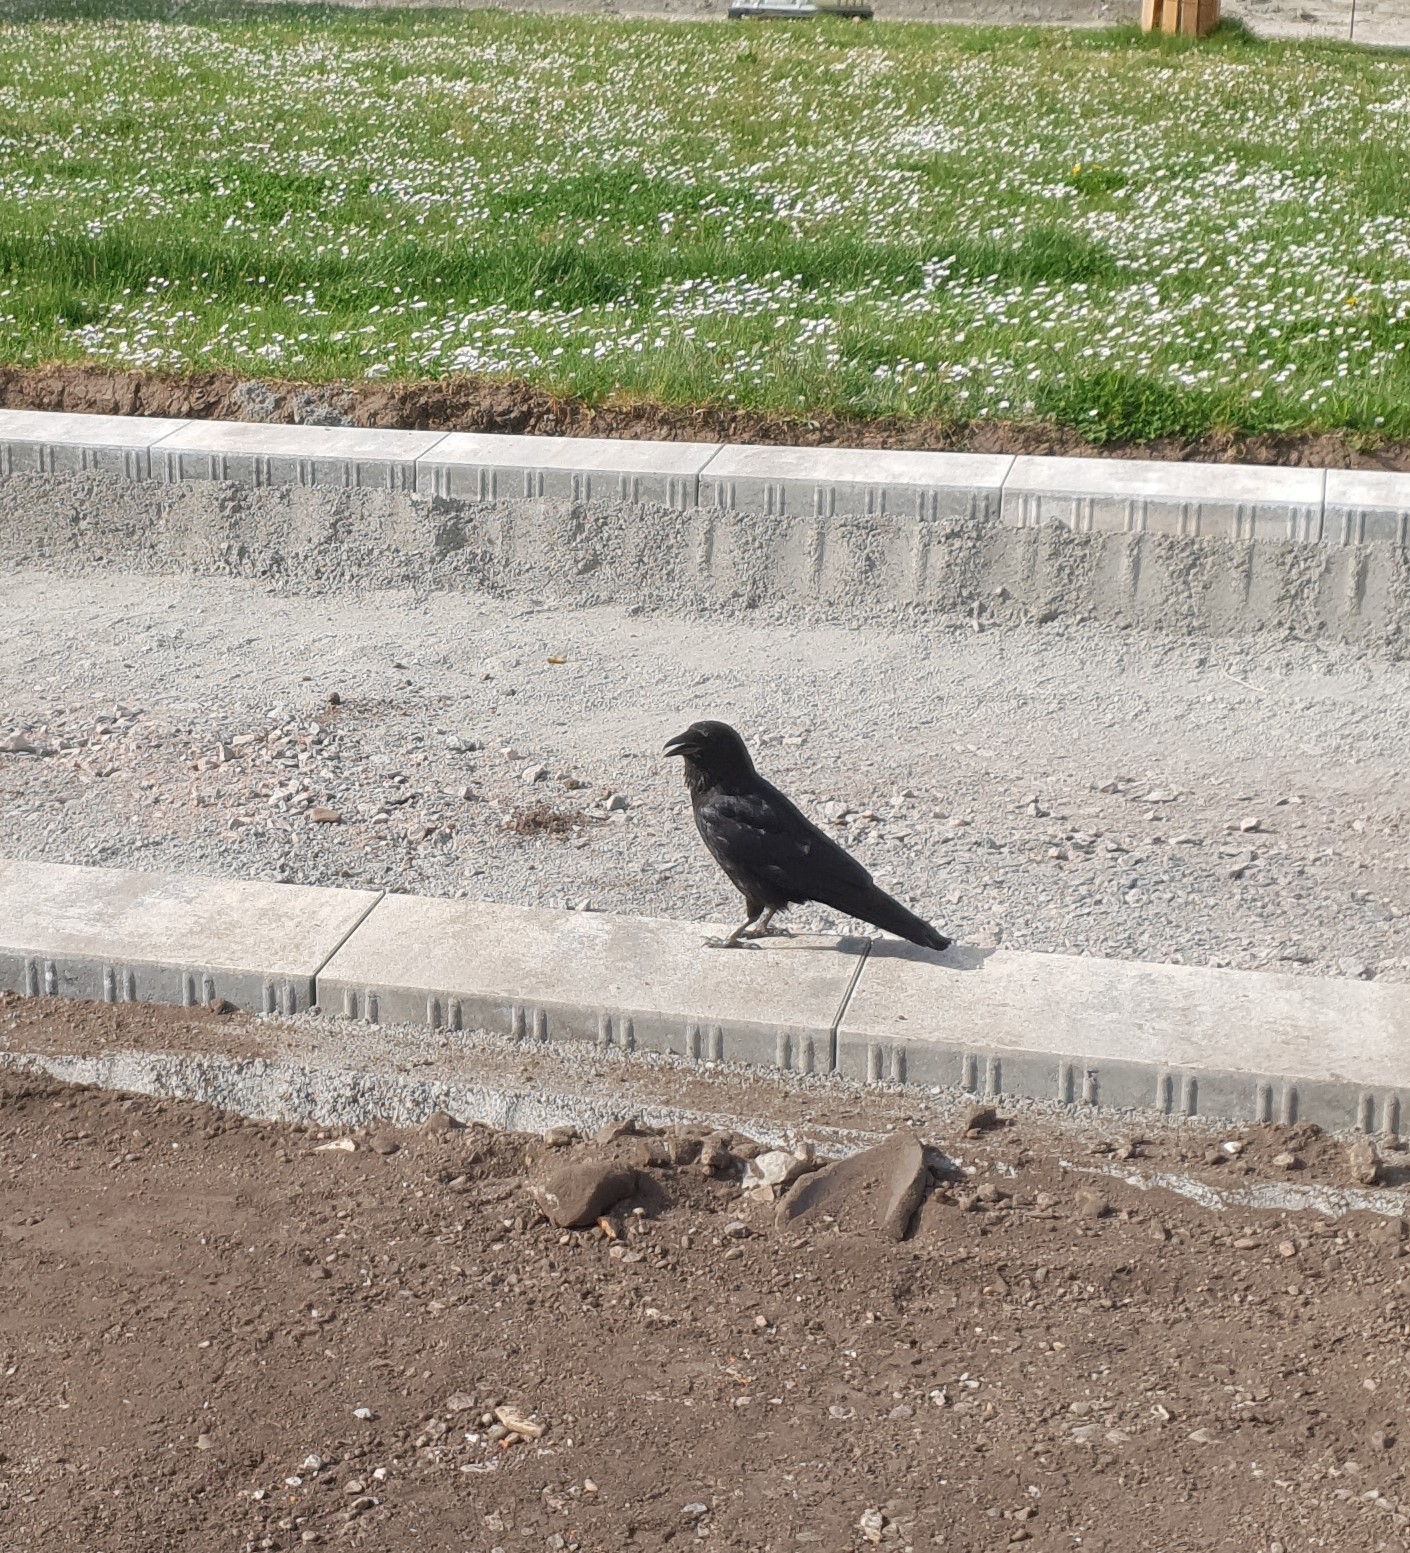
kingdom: Animalia
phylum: Chordata
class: Aves
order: Passeriformes
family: Corvidae
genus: Corvus
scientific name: Corvus corone
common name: Carrion crow
